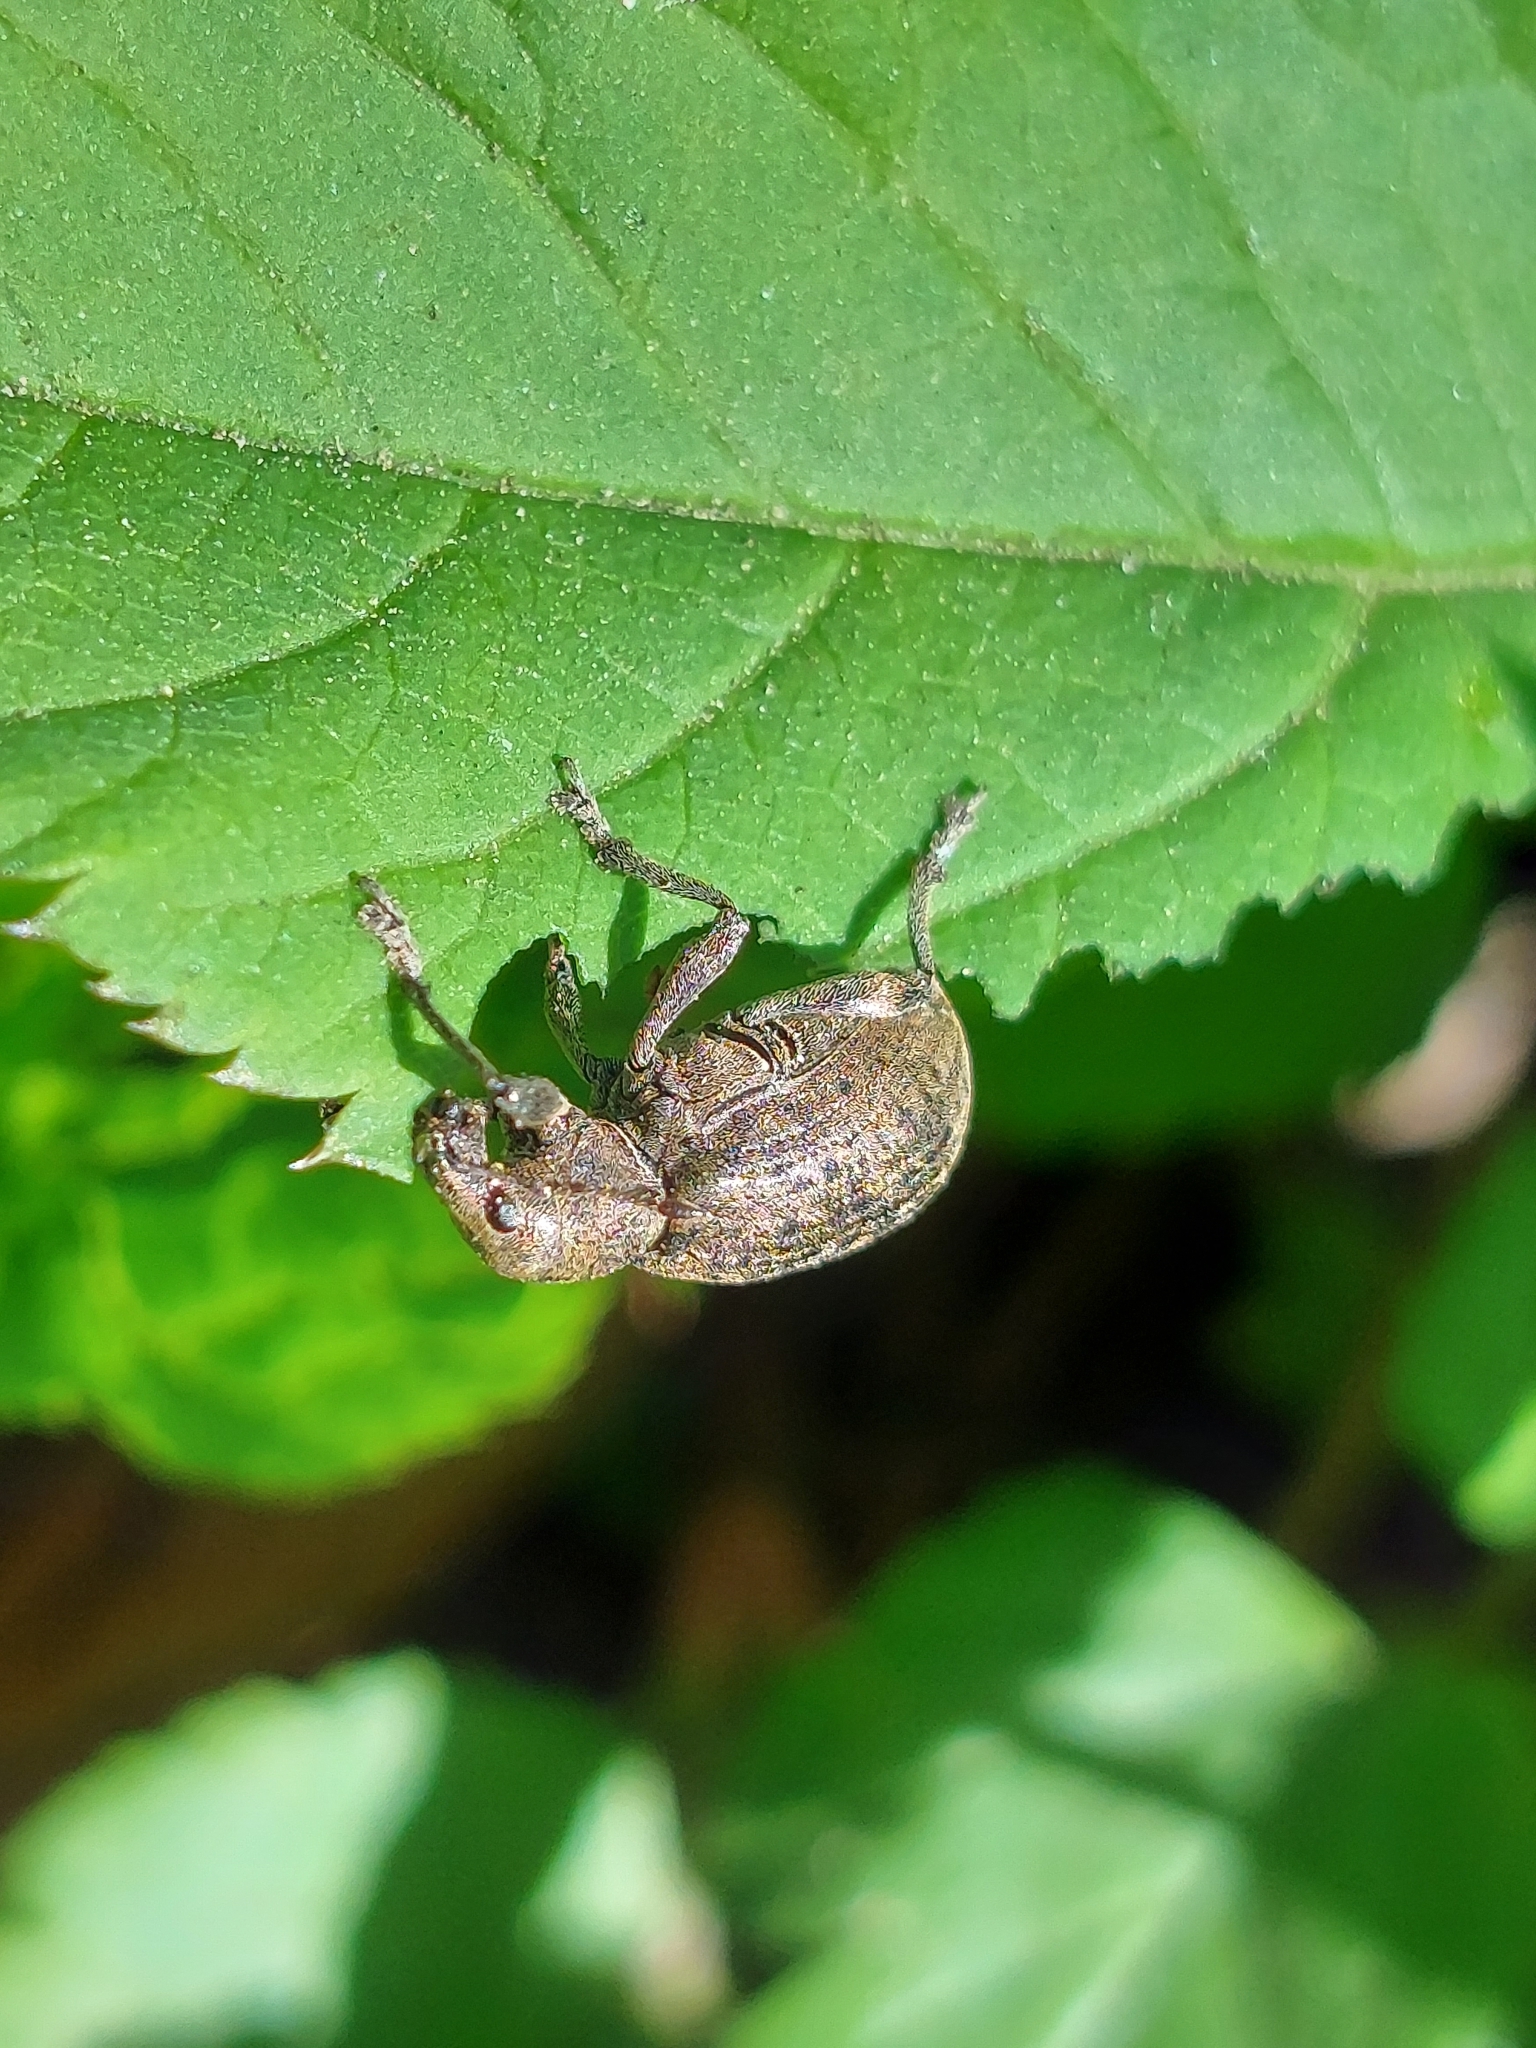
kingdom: Animalia
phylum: Arthropoda
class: Insecta
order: Coleoptera
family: Curculionidae
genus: Liophloeus
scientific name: Liophloeus tessulatus
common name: Weevil
